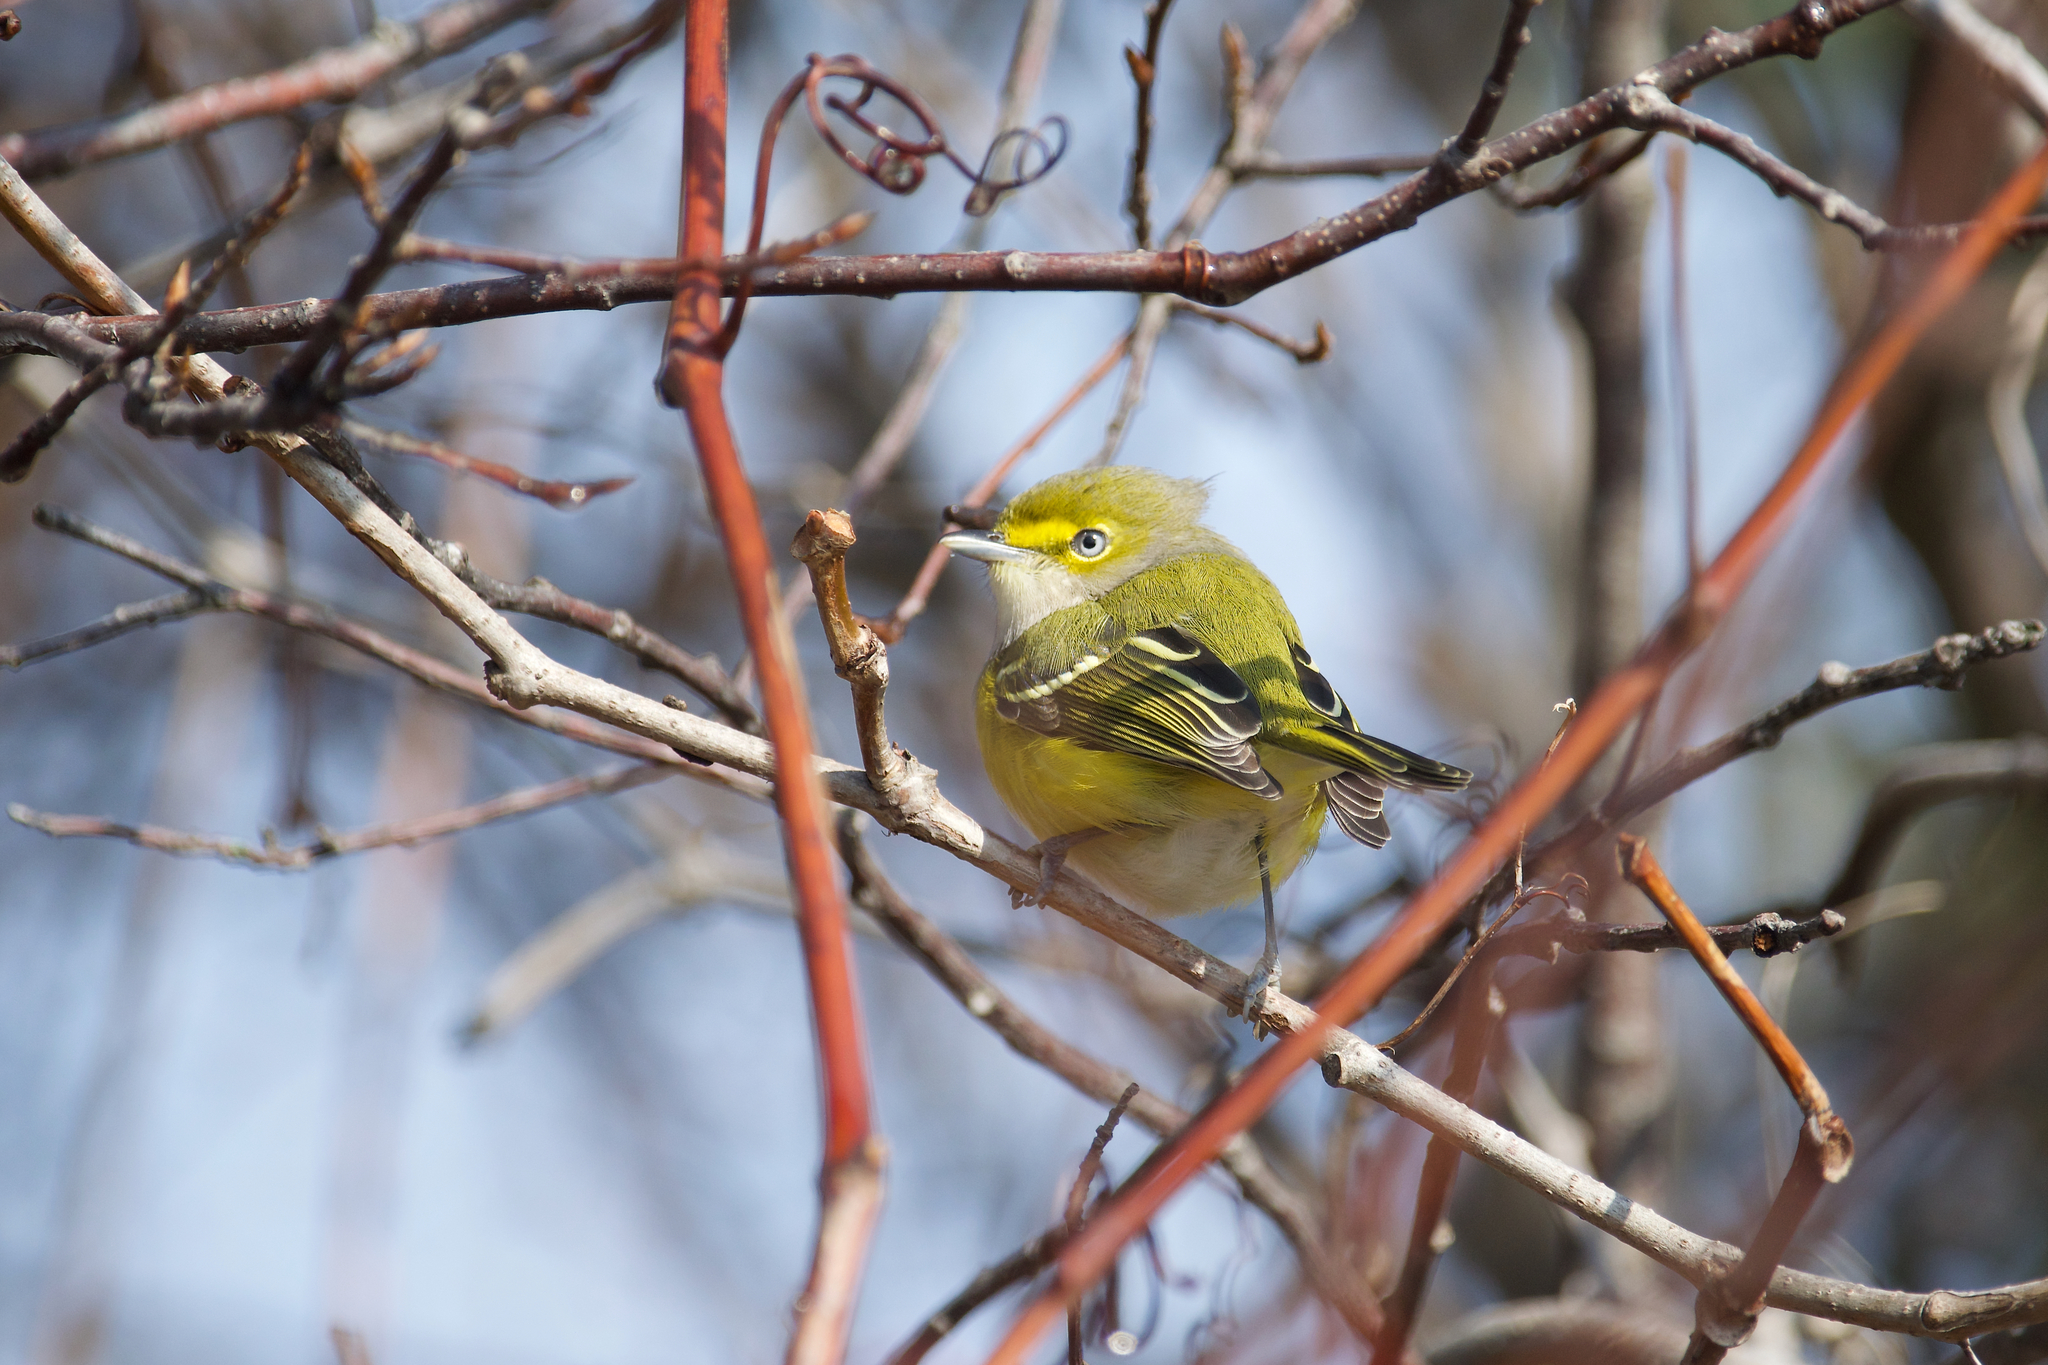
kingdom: Animalia
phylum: Chordata
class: Aves
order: Passeriformes
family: Vireonidae
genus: Vireo
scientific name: Vireo griseus
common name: White-eyed vireo
